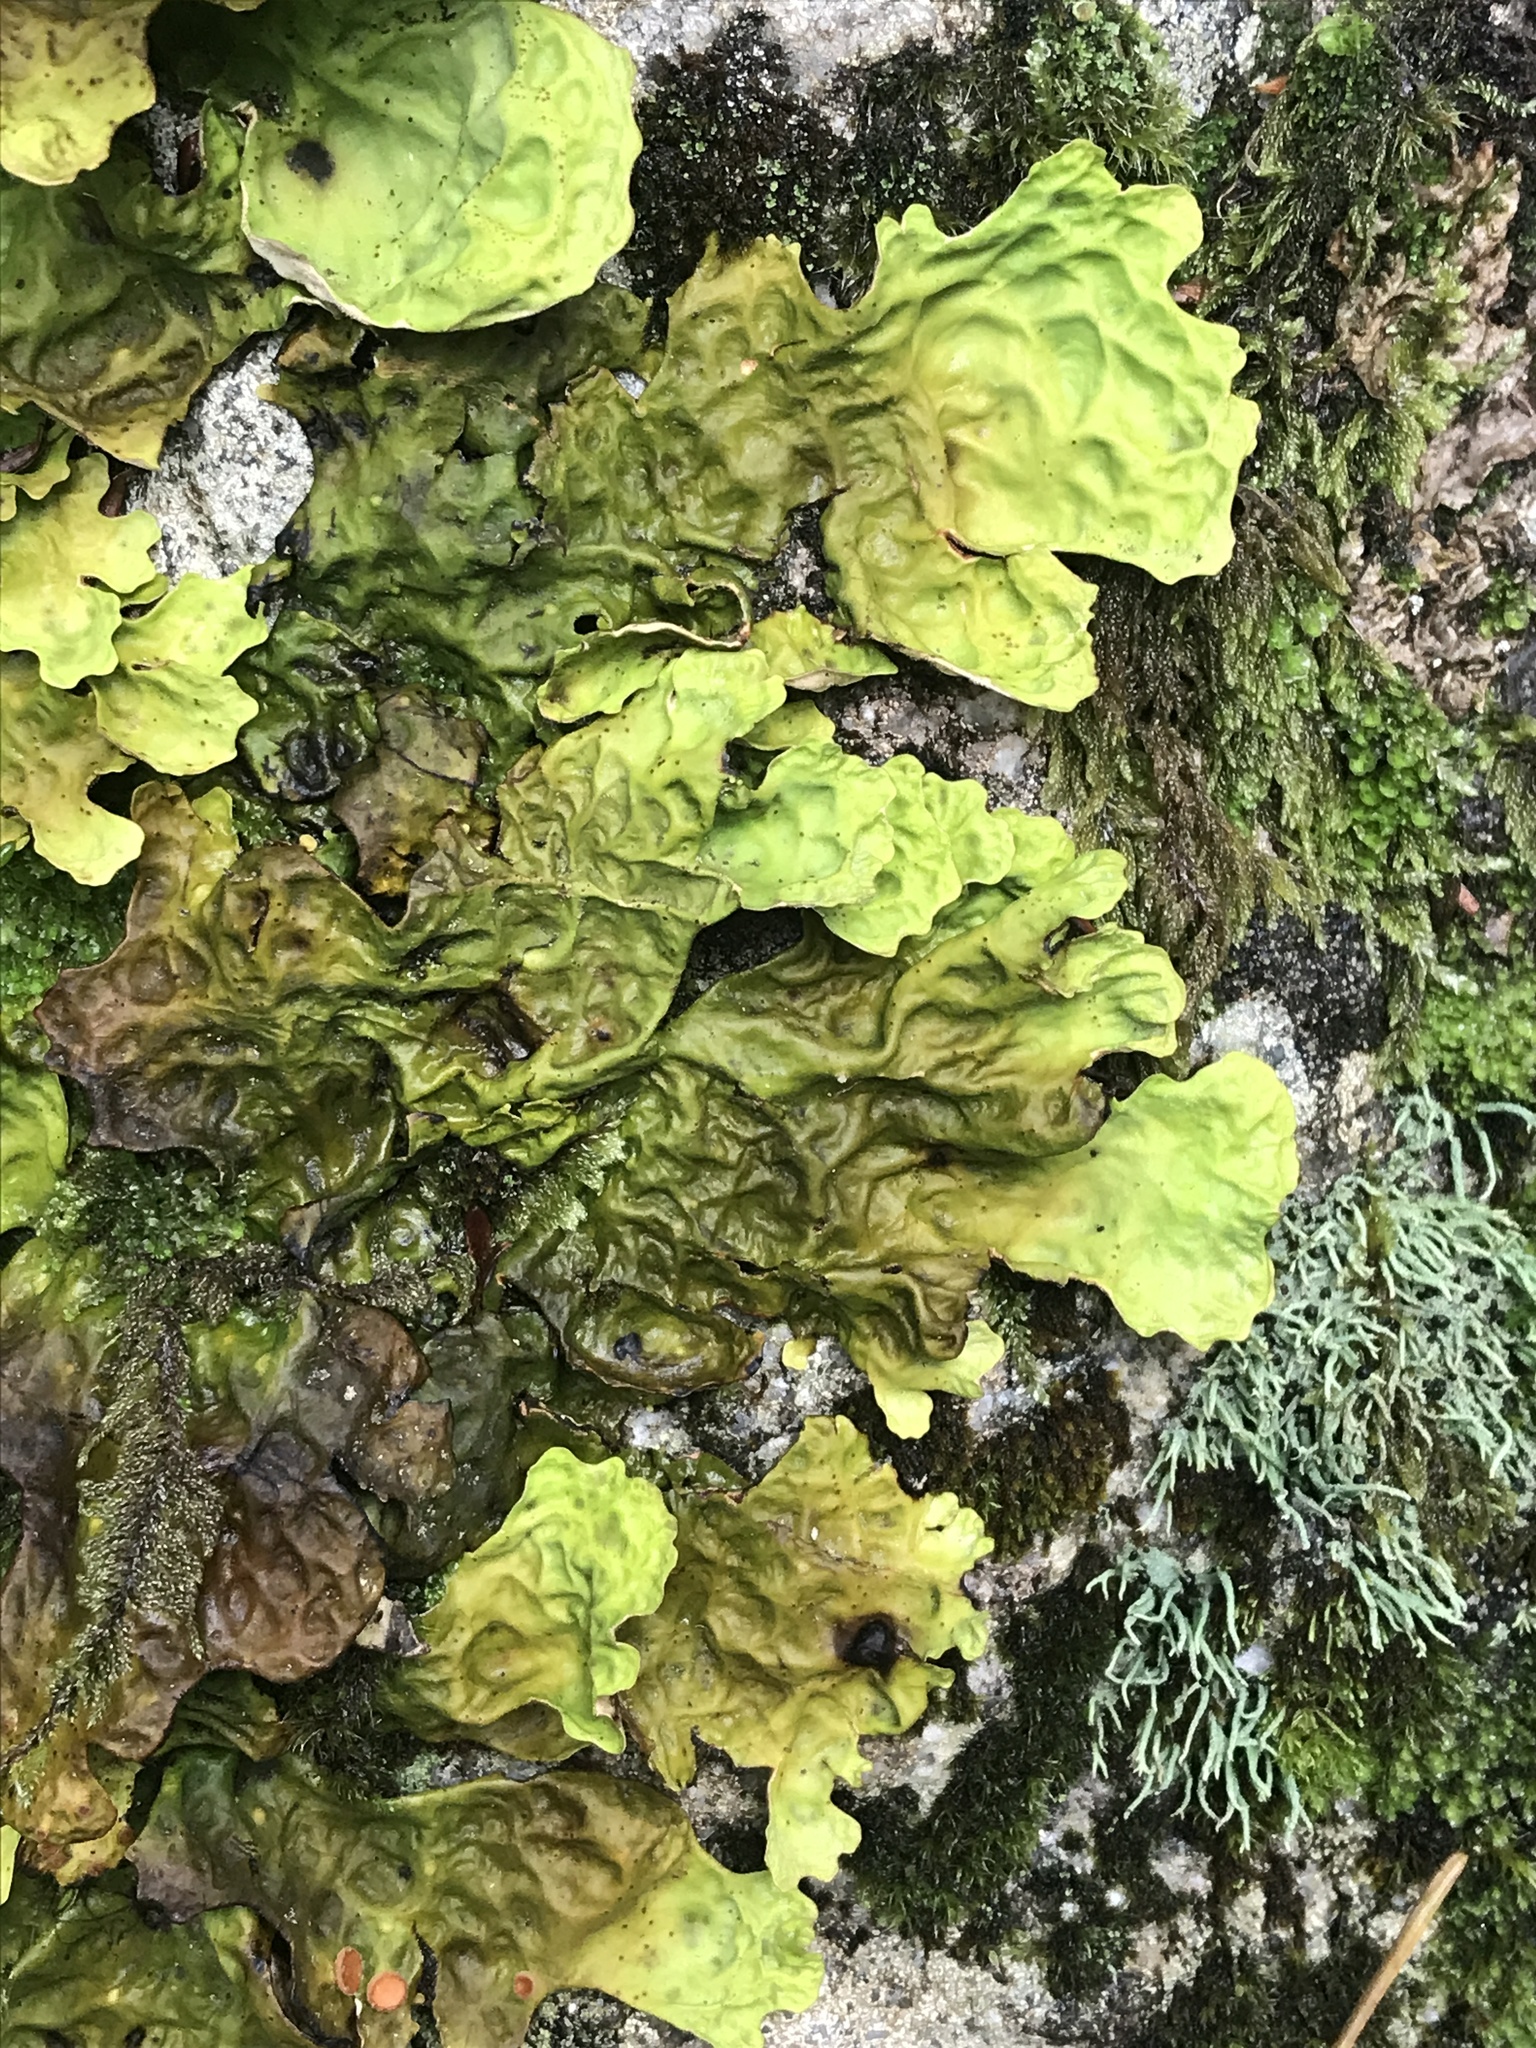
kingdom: Fungi
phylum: Ascomycota
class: Lecanoromycetes
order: Peltigerales
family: Lobariaceae
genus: Lobaria
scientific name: Lobaria pulmonaria
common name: Lungwort
